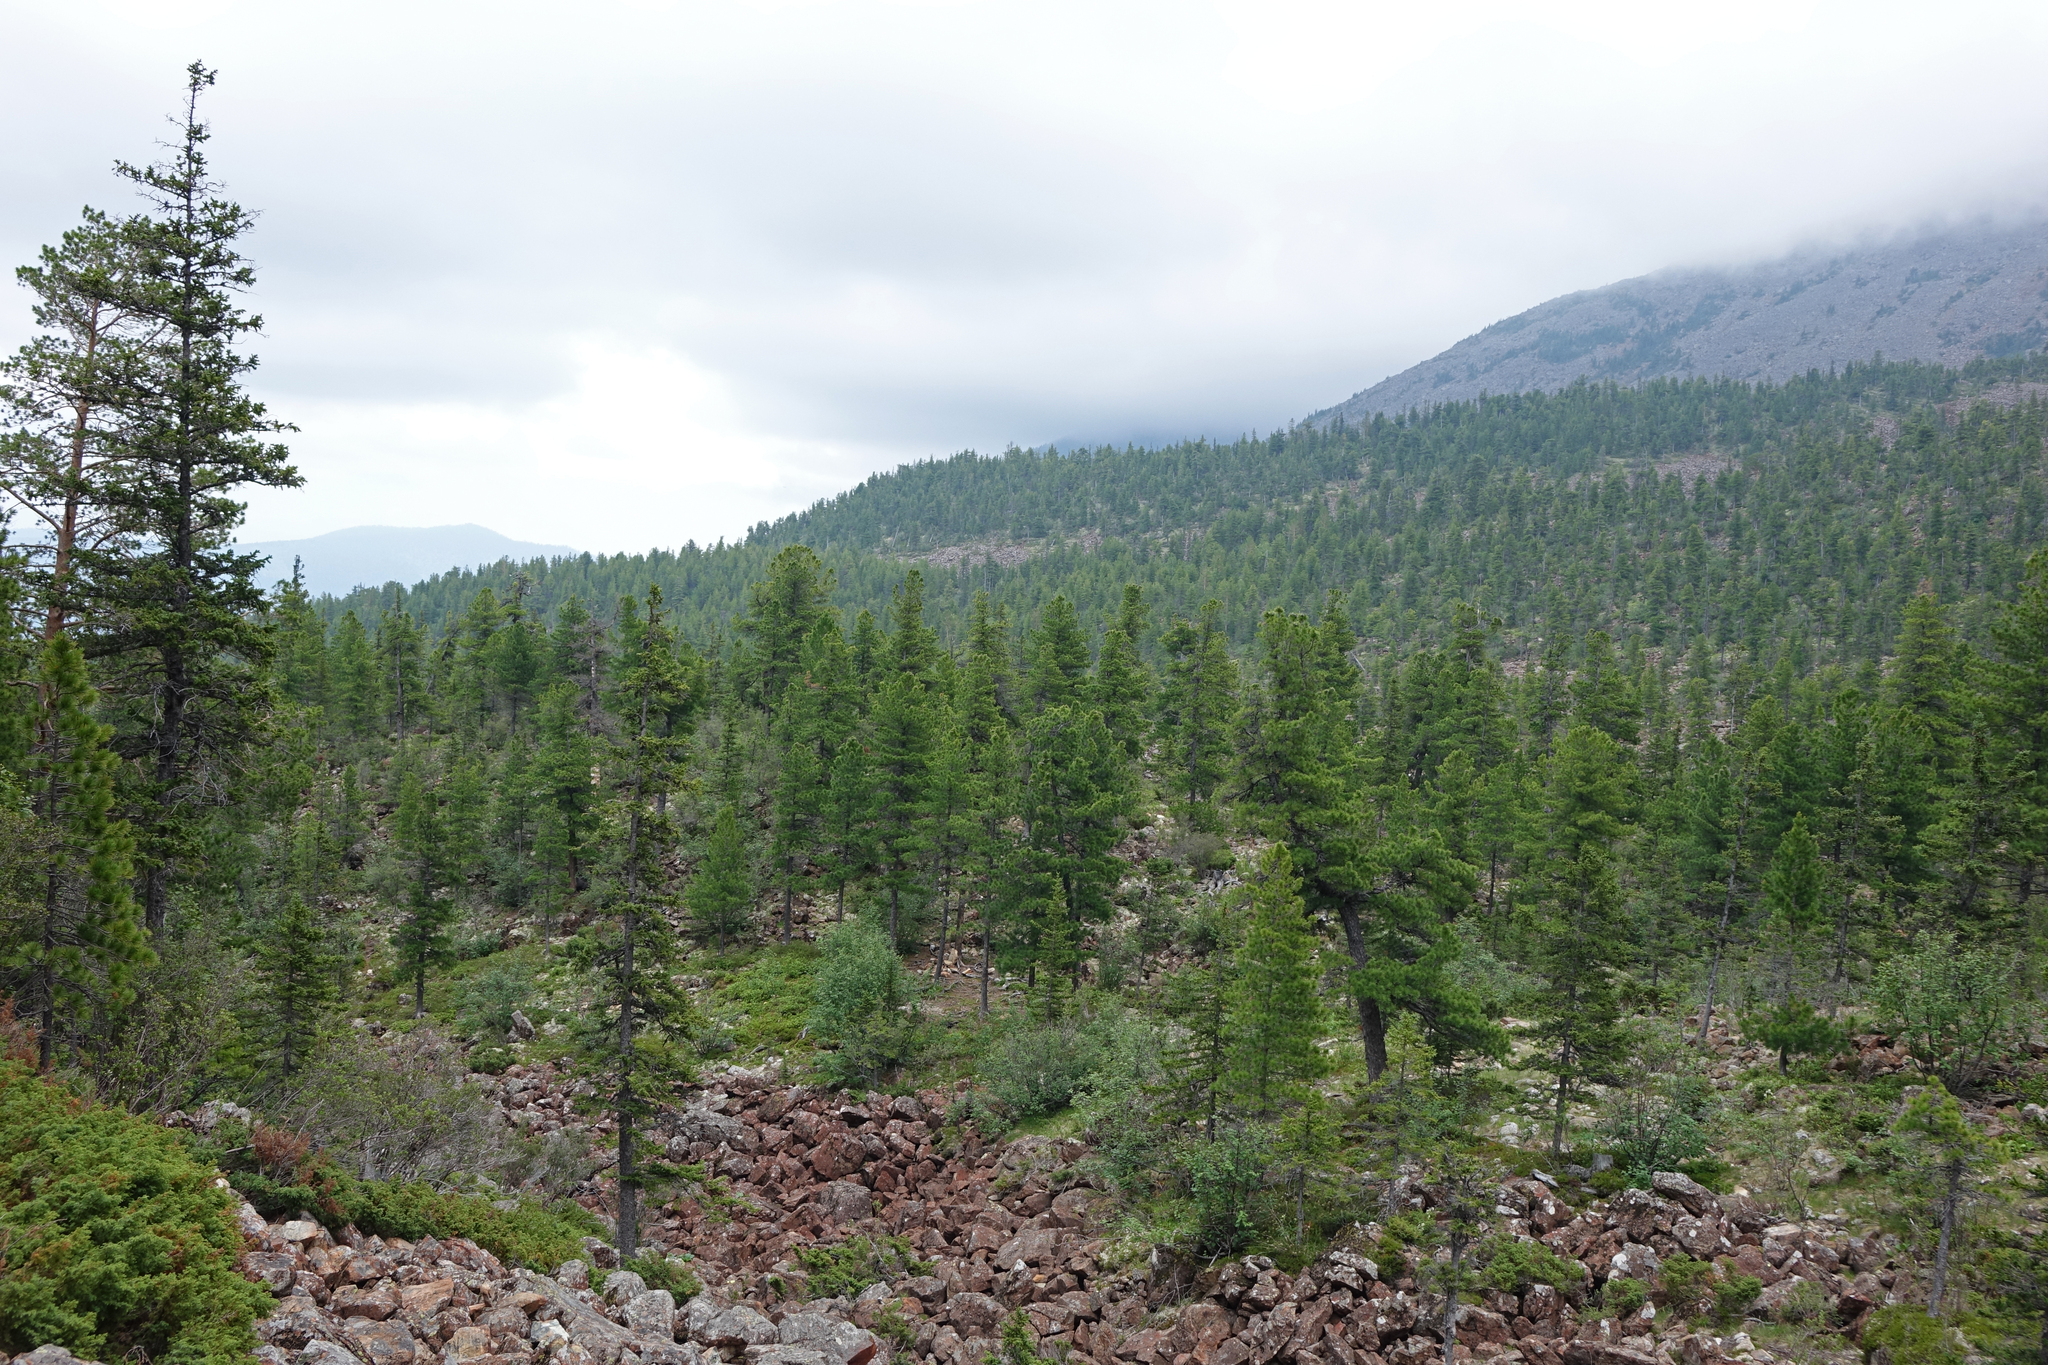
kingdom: Plantae
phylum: Tracheophyta
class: Pinopsida
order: Pinales
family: Pinaceae
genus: Pinus
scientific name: Pinus sibirica
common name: Siberian pine
